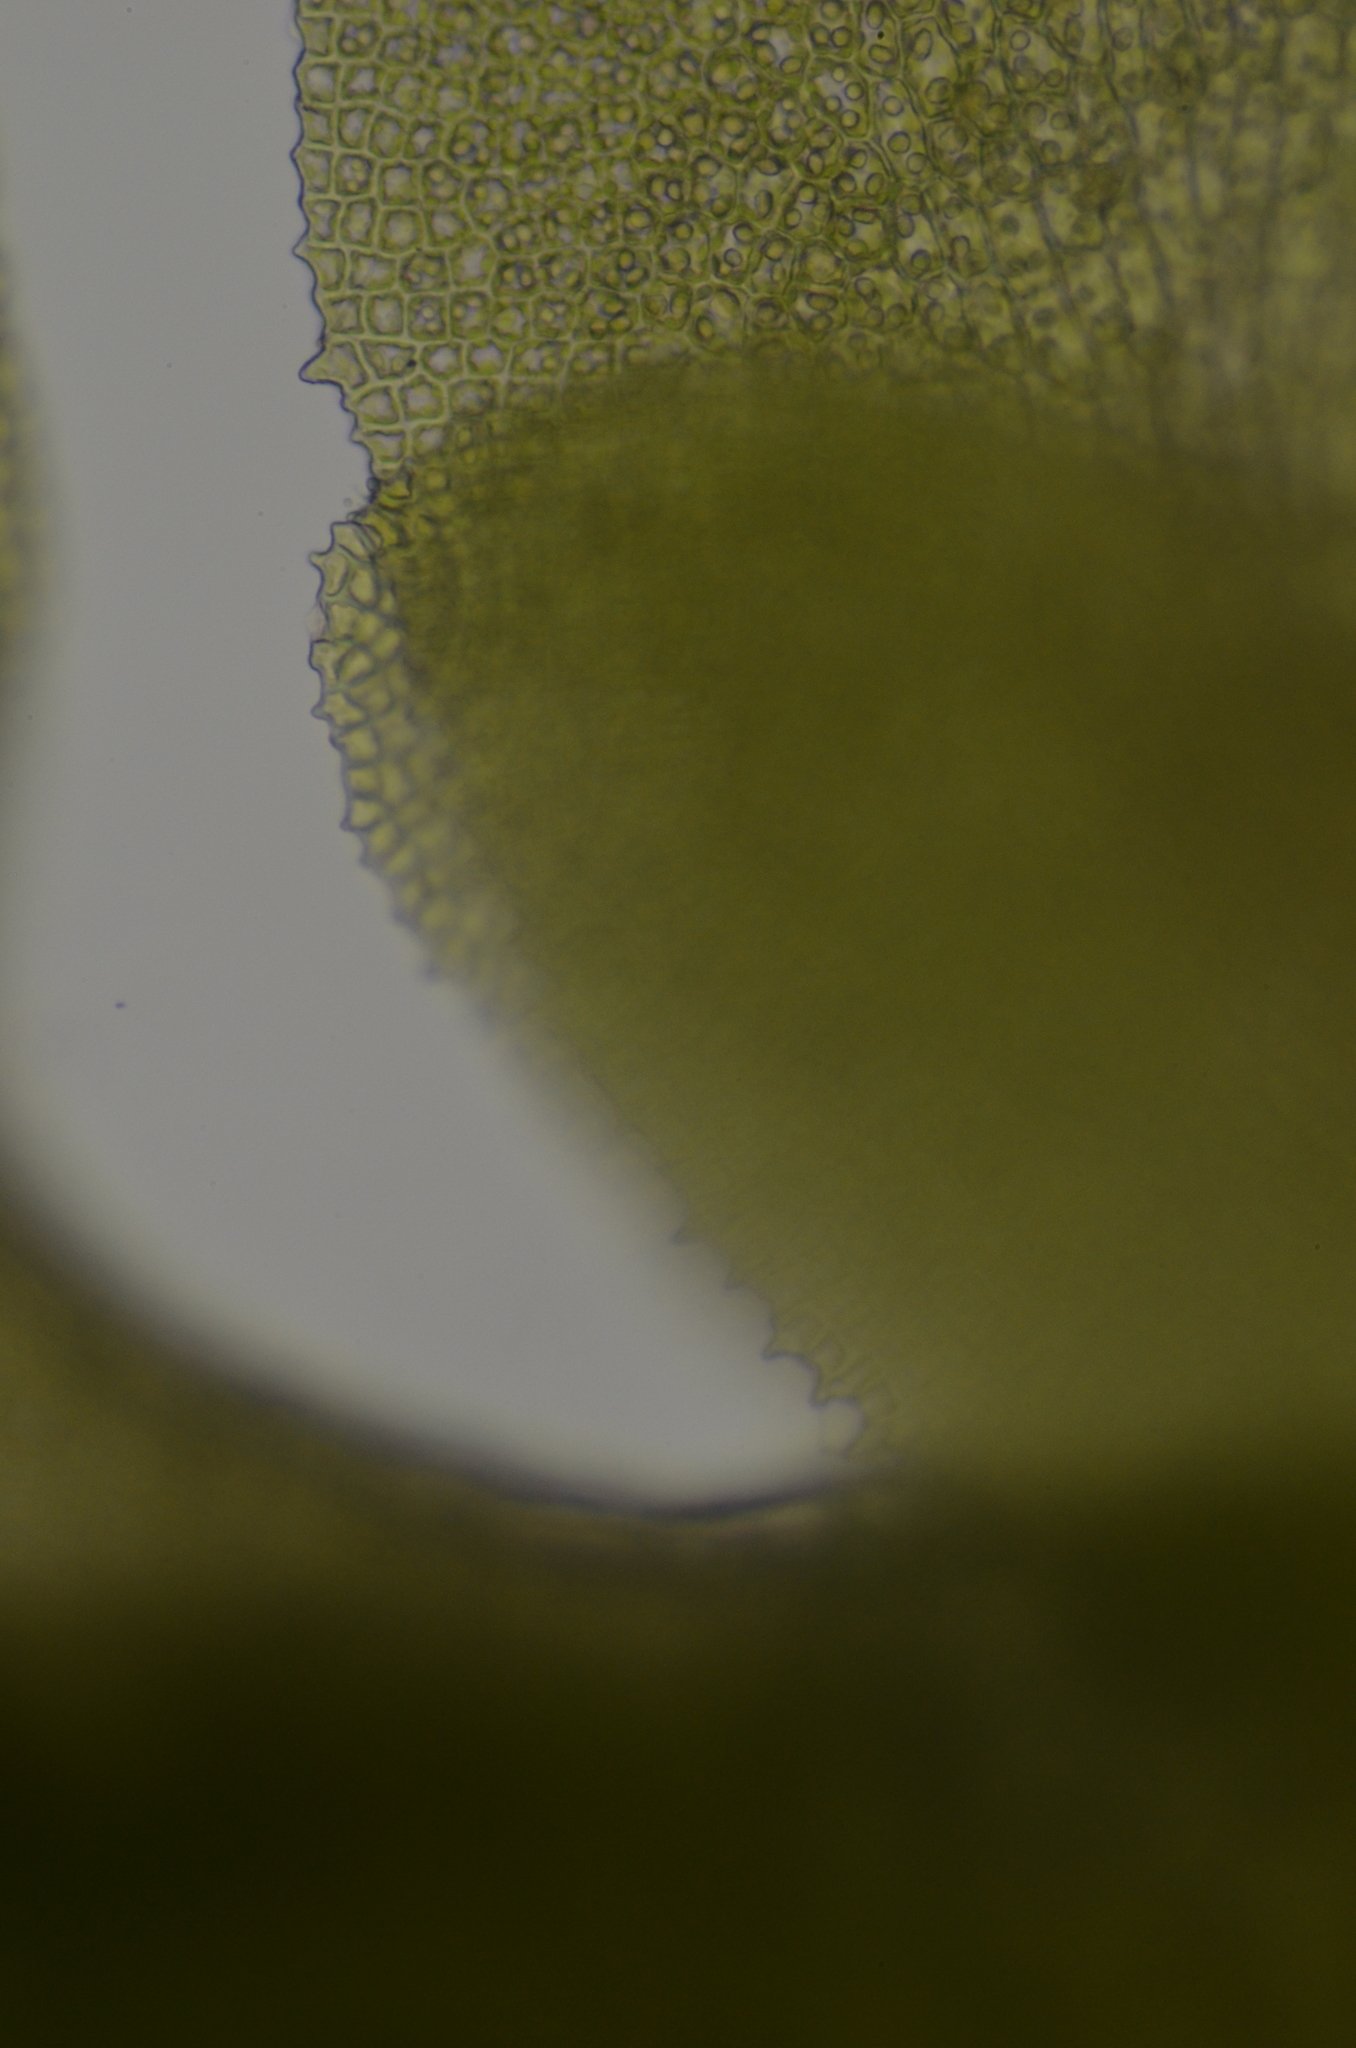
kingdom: Plantae
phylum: Marchantiophyta
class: Jungermanniopsida
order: Jungermanniales
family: Scapaniaceae
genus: Diplophyllum
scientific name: Diplophyllum obtusifolium
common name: Blunt-leaved earwort
